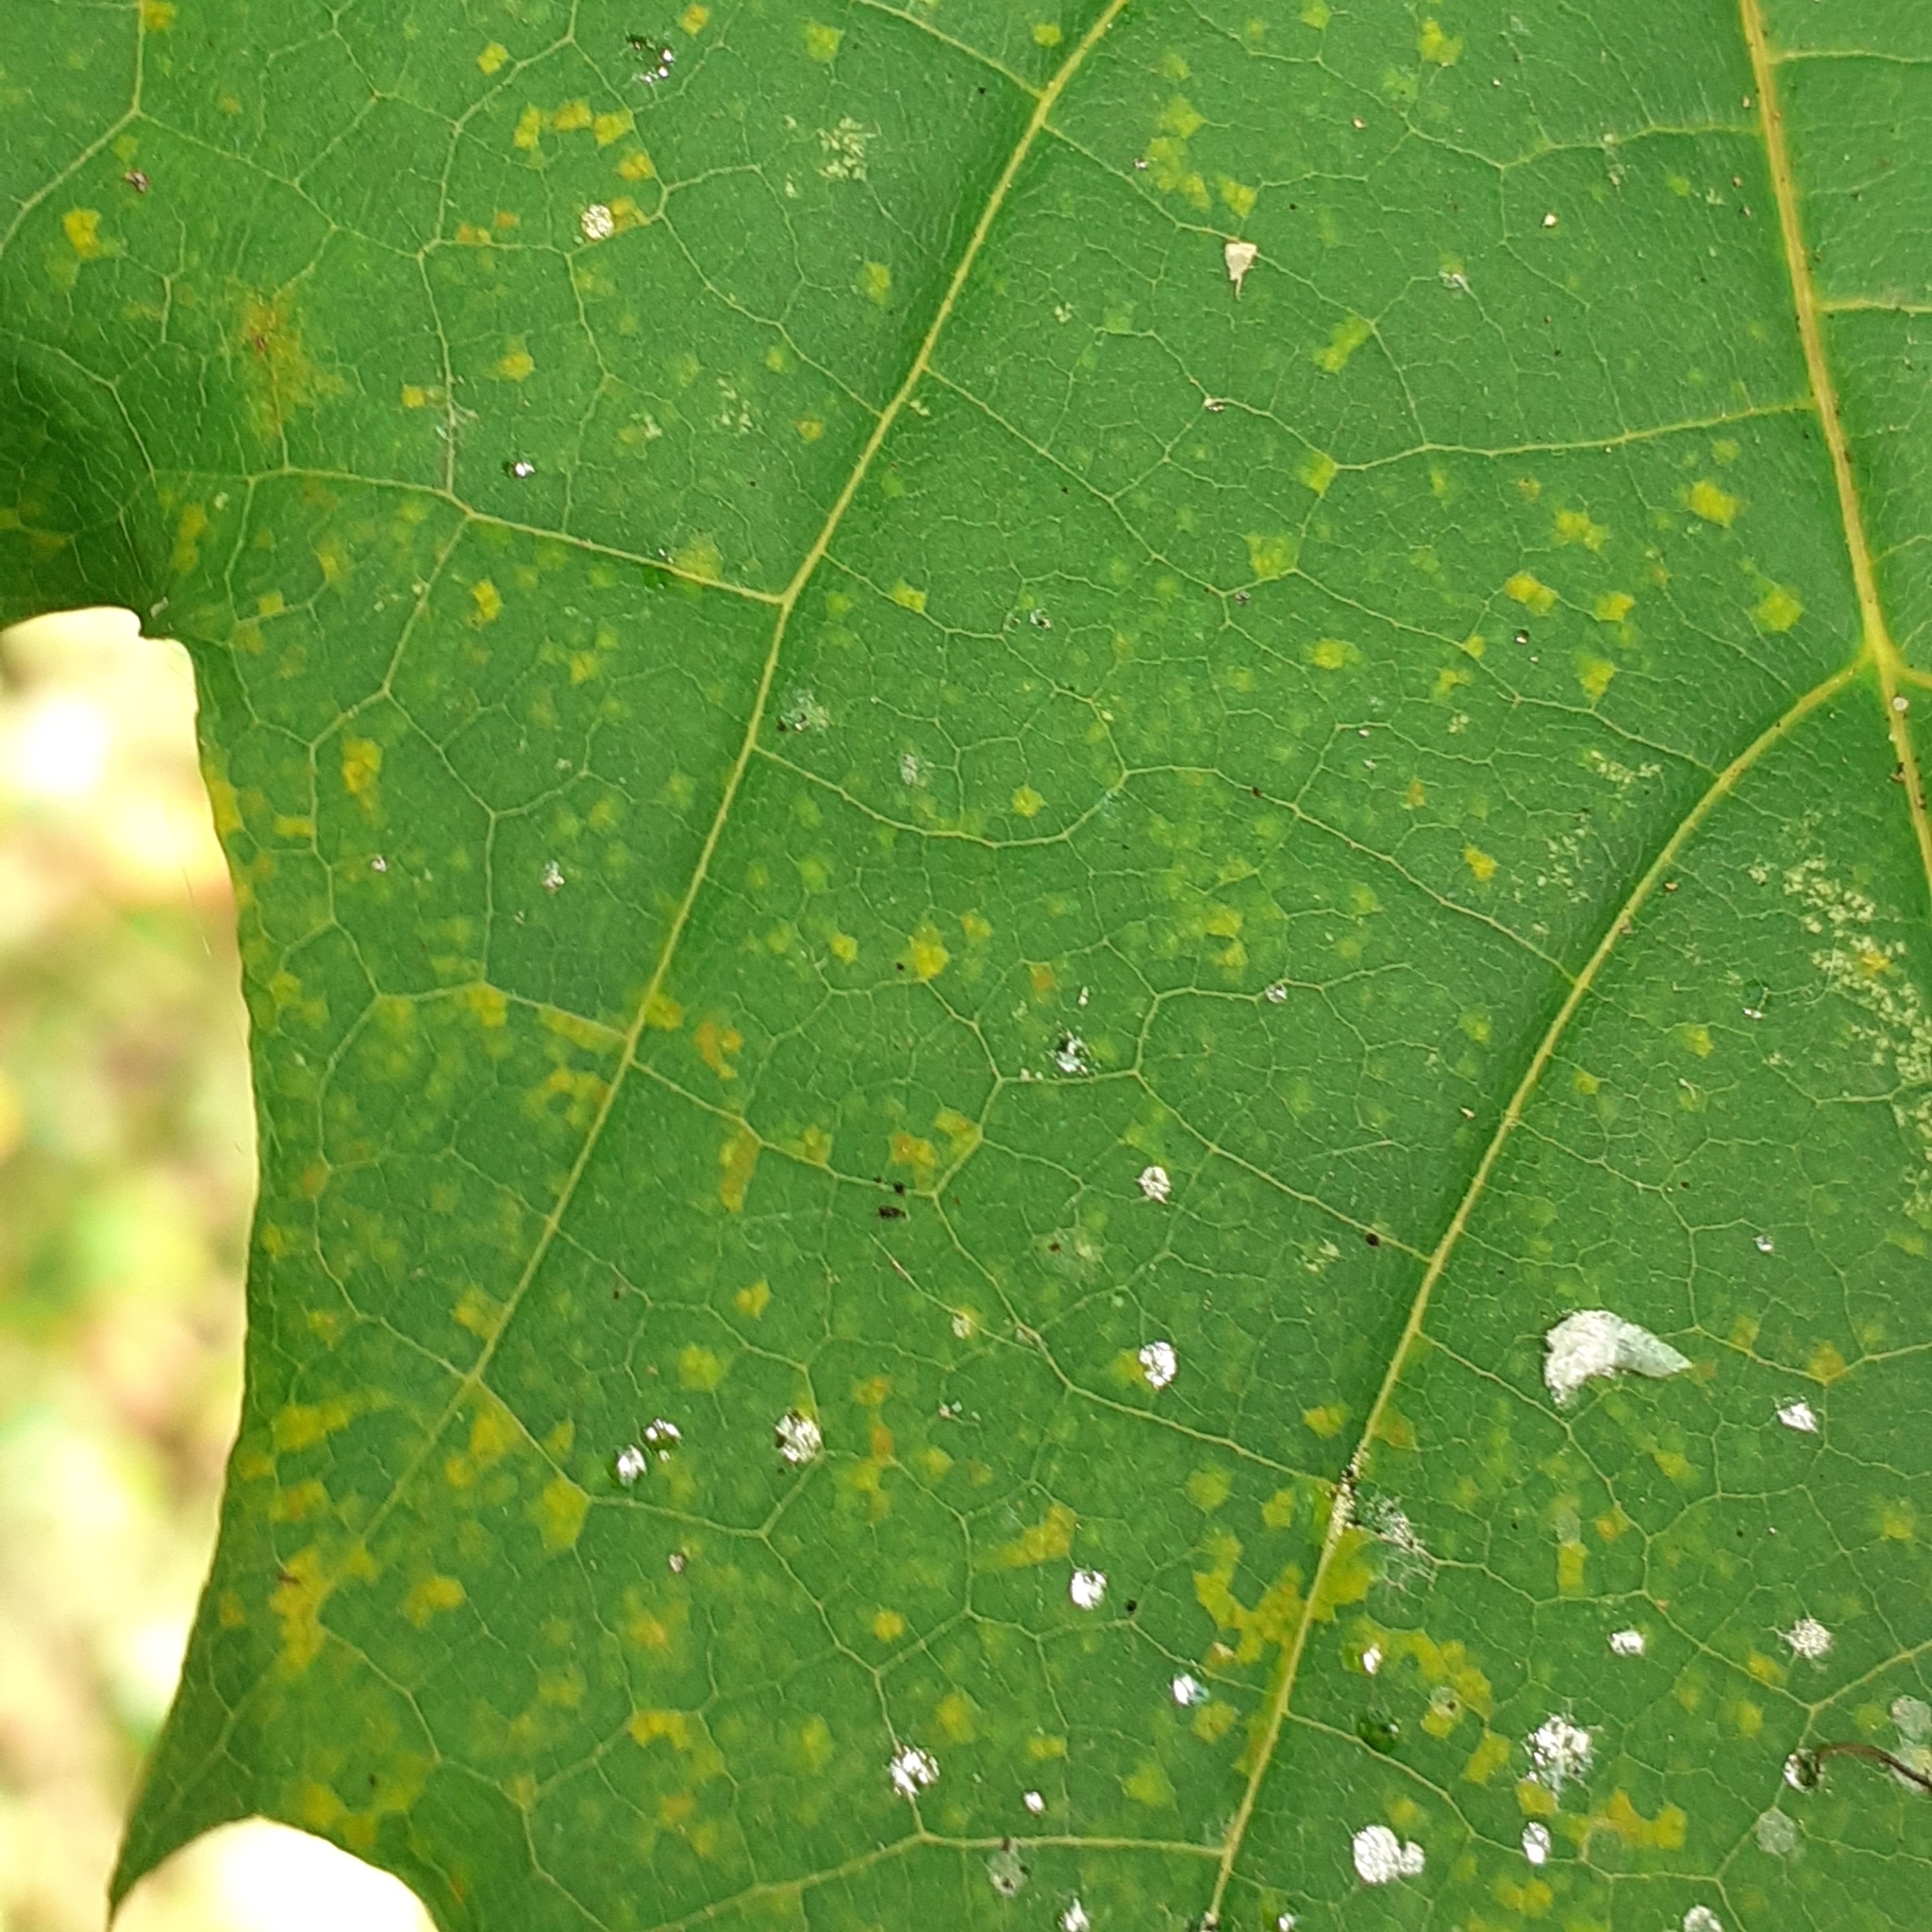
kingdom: Plantae
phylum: Tracheophyta
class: Magnoliopsida
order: Sapindales
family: Sapindaceae
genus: Acer
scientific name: Acer platanoides
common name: Norway maple
